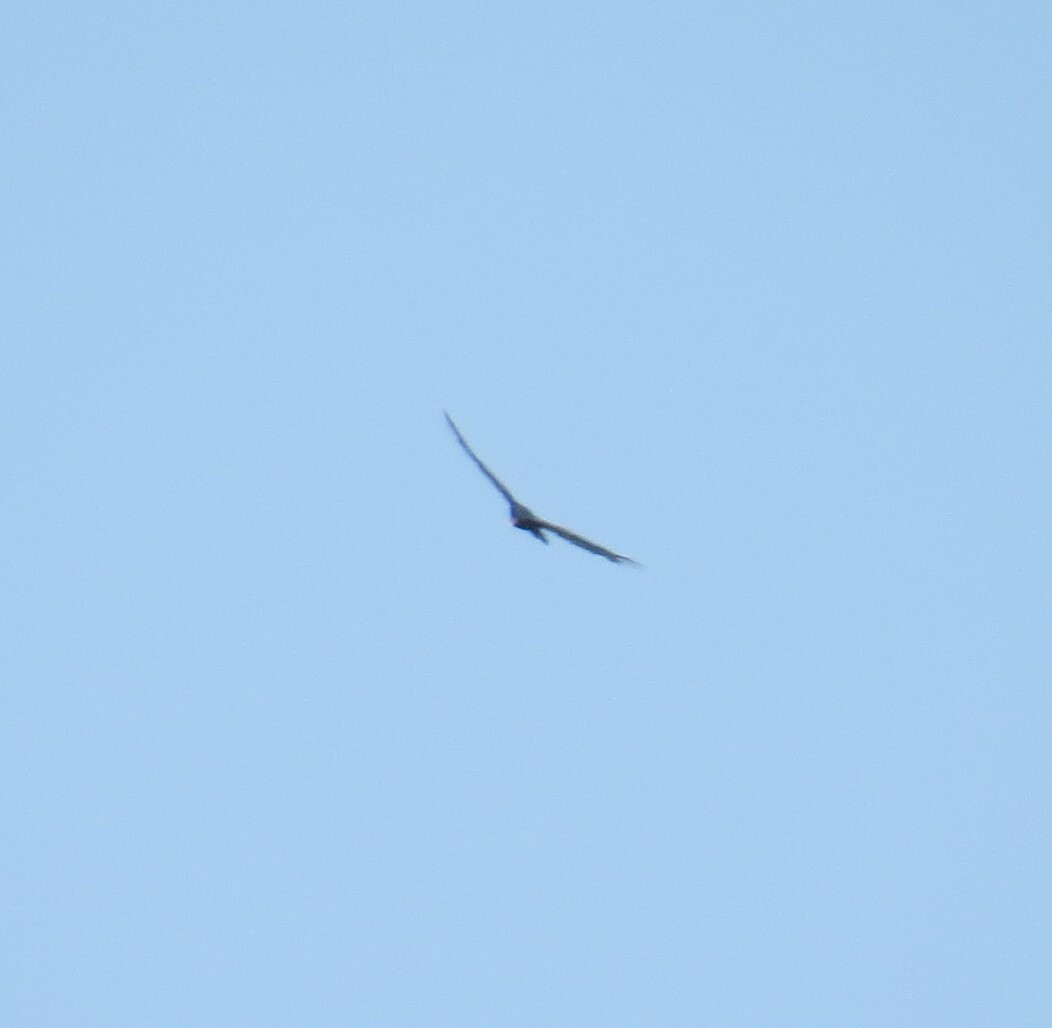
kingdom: Animalia
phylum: Chordata
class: Aves
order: Accipitriformes
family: Cathartidae
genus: Cathartes
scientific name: Cathartes aura
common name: Turkey vulture
